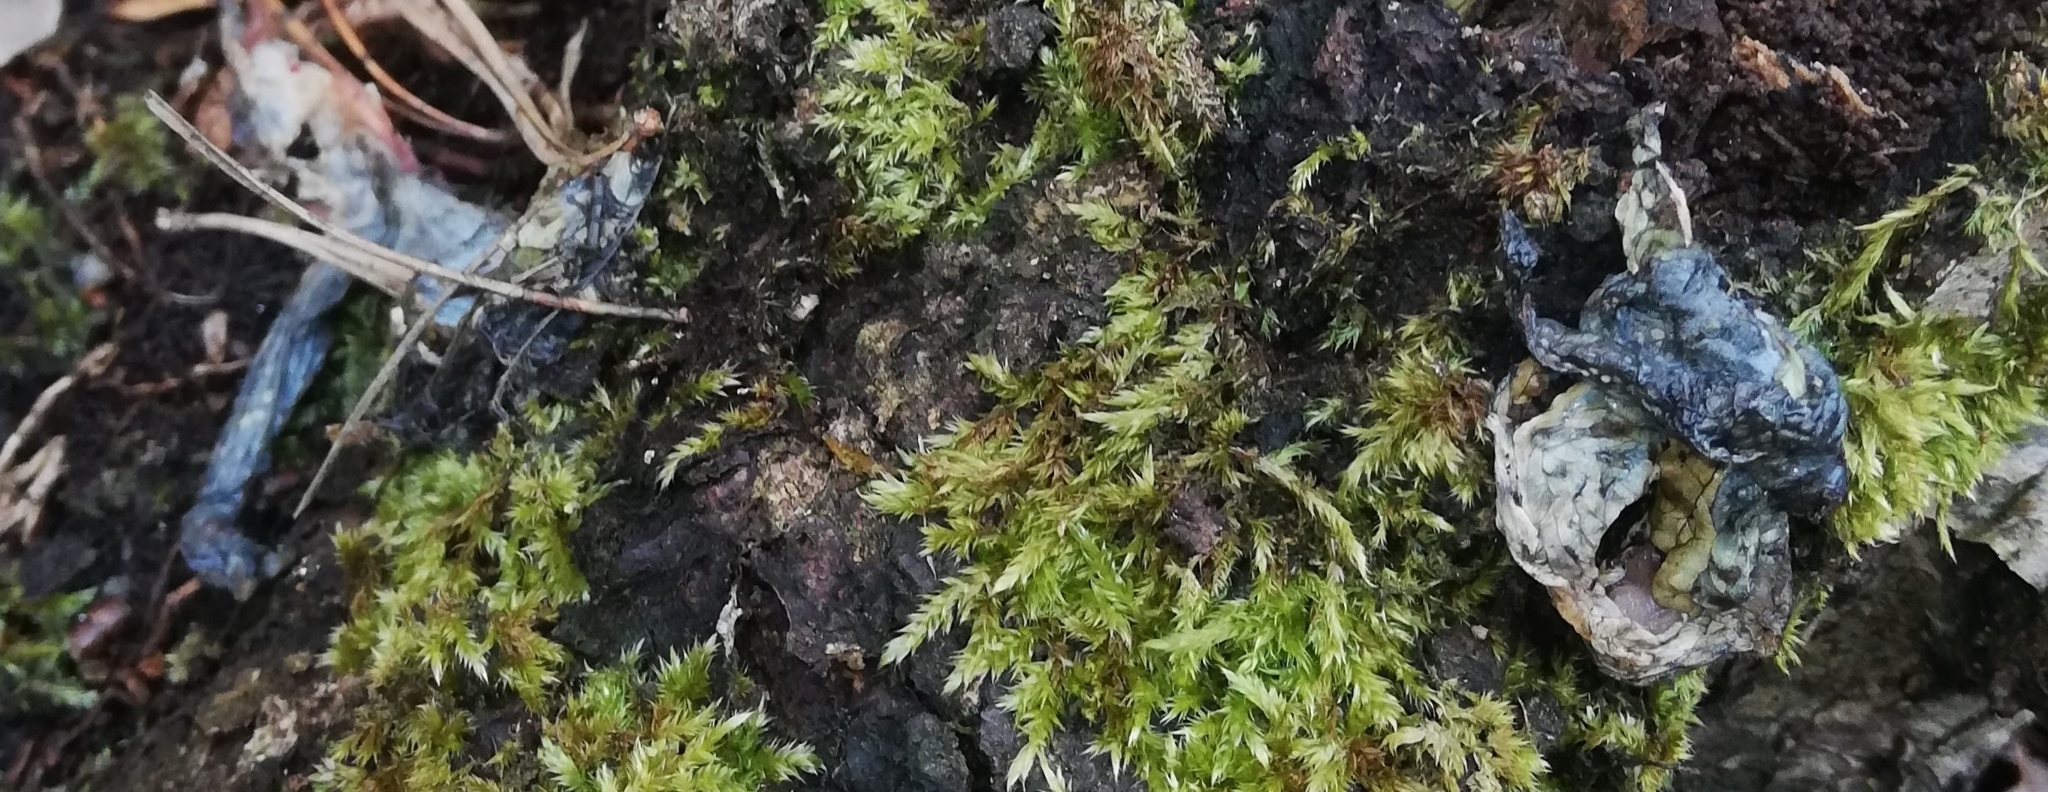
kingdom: Animalia
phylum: Chordata
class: Amphibia
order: Anura
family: Bufonidae
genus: Bufo
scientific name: Bufo bufo
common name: Common toad
